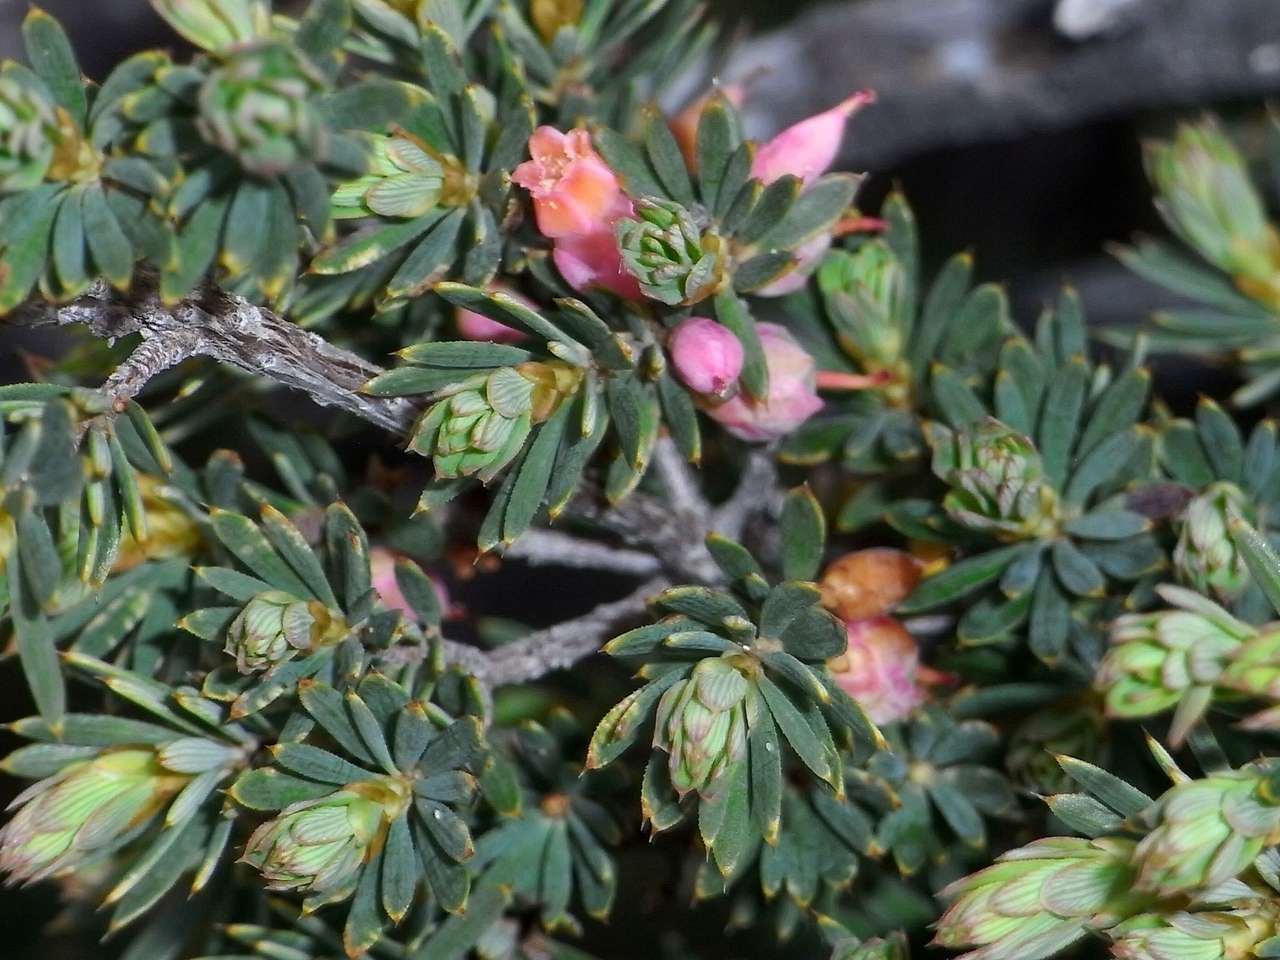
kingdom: Plantae
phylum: Tracheophyta
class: Magnoliopsida
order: Ericales
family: Ericaceae
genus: Brachyloma
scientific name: Brachyloma ericoides
